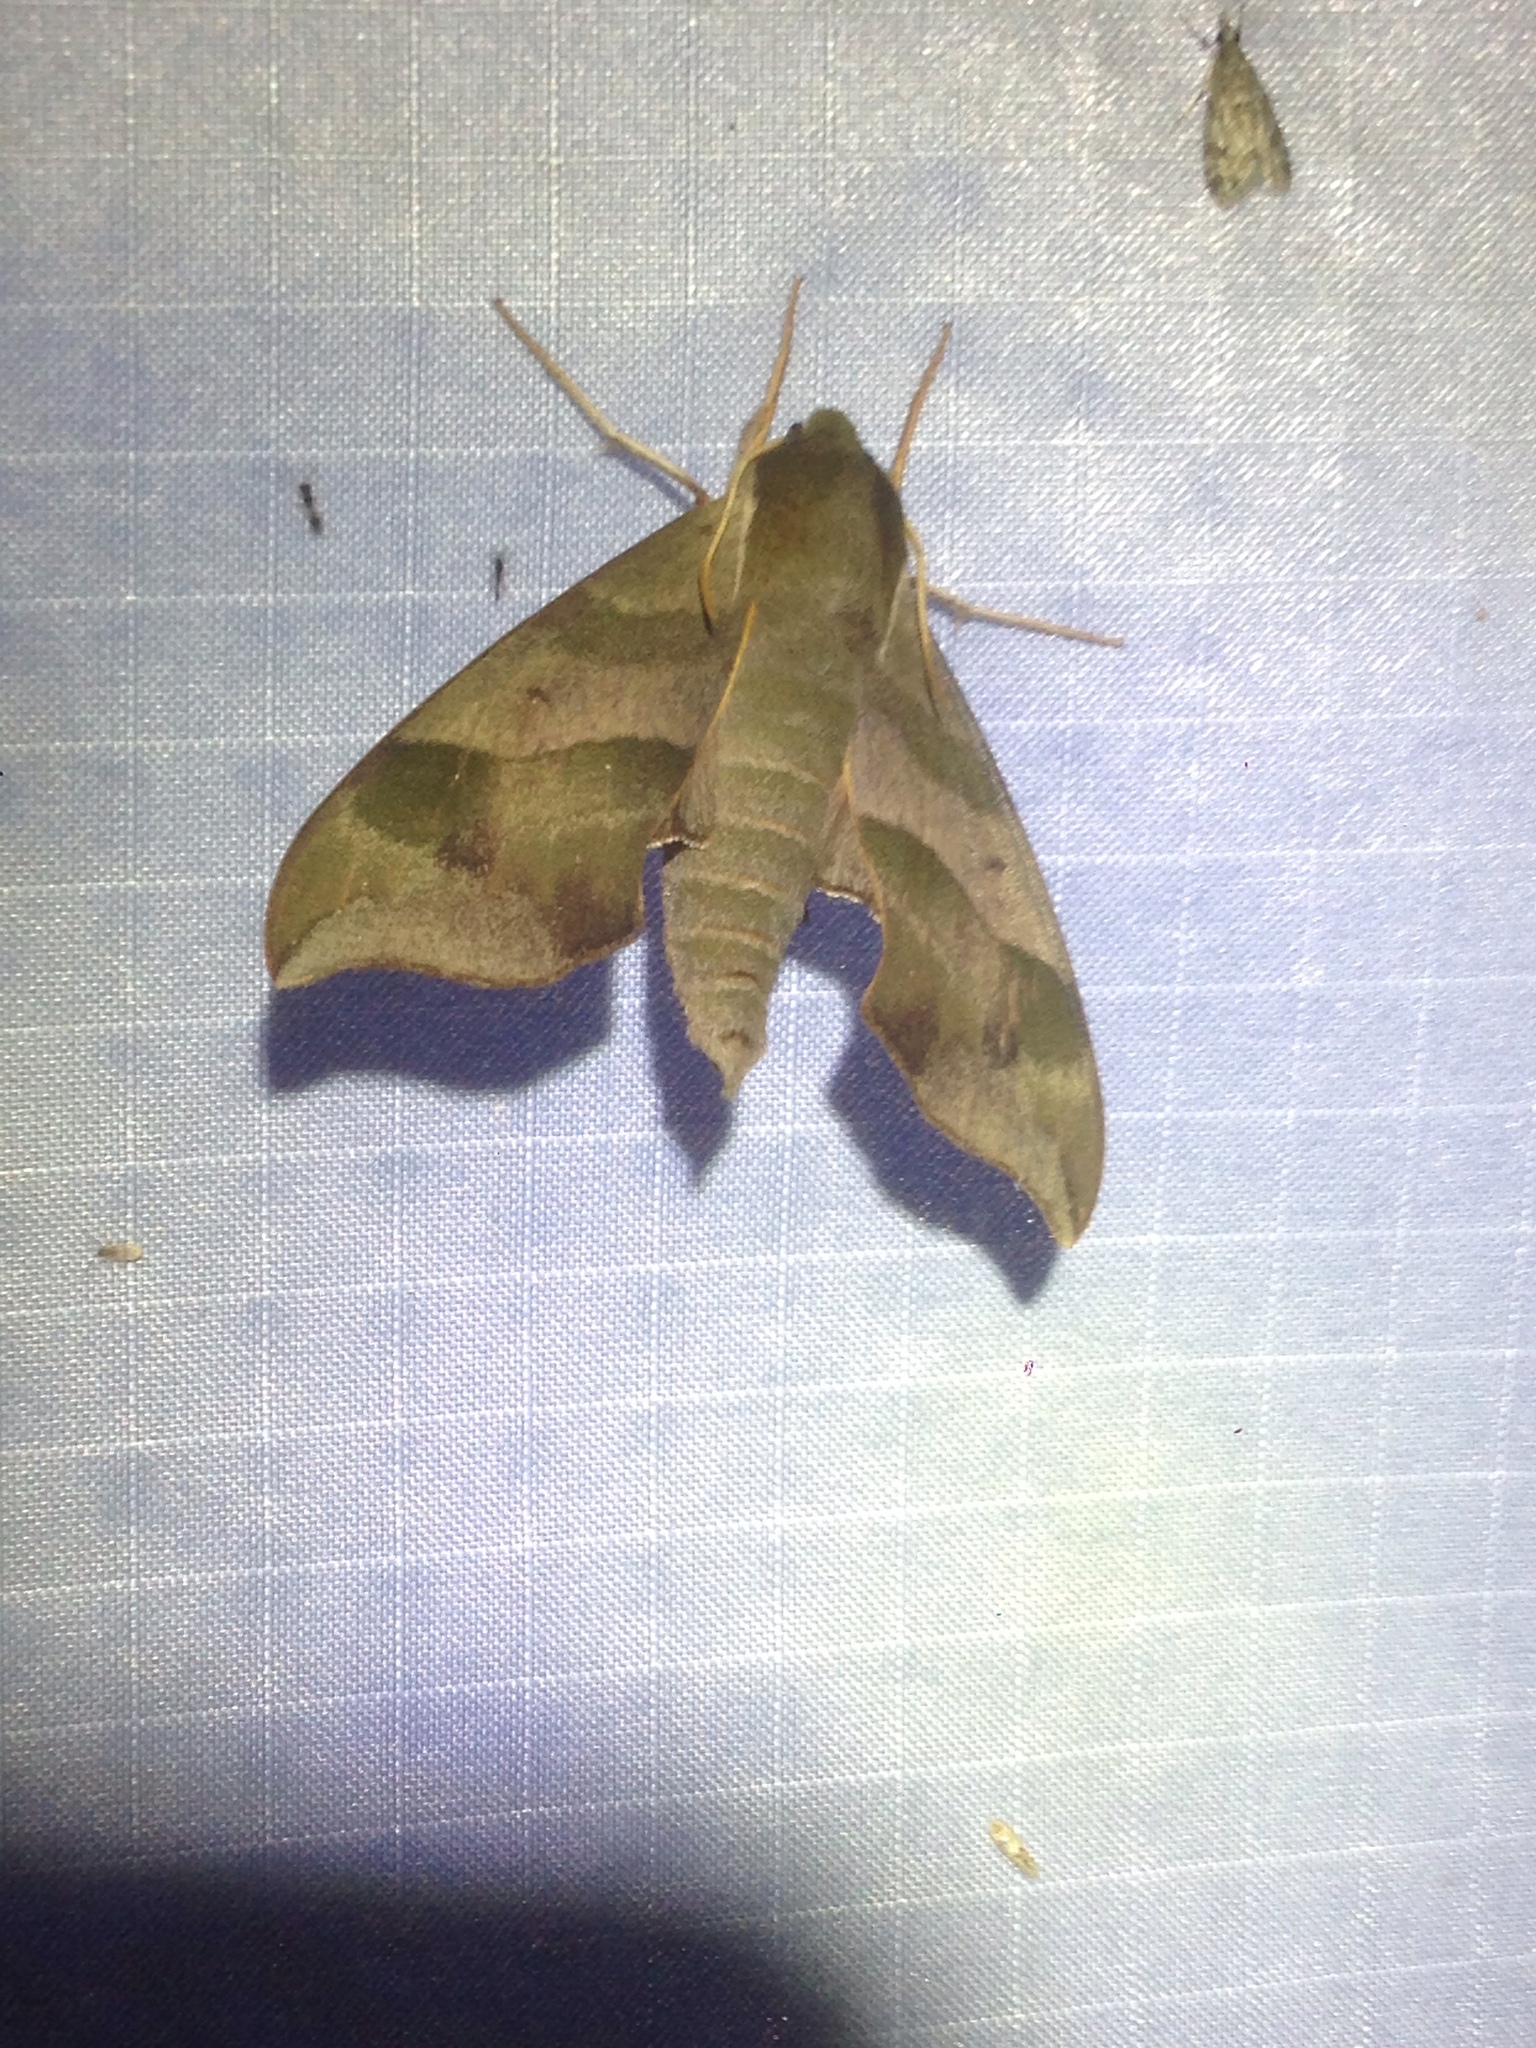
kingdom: Animalia
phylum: Arthropoda
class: Insecta
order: Lepidoptera
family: Sphingidae
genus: Darapsa
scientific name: Darapsa myron
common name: Hog sphinx
